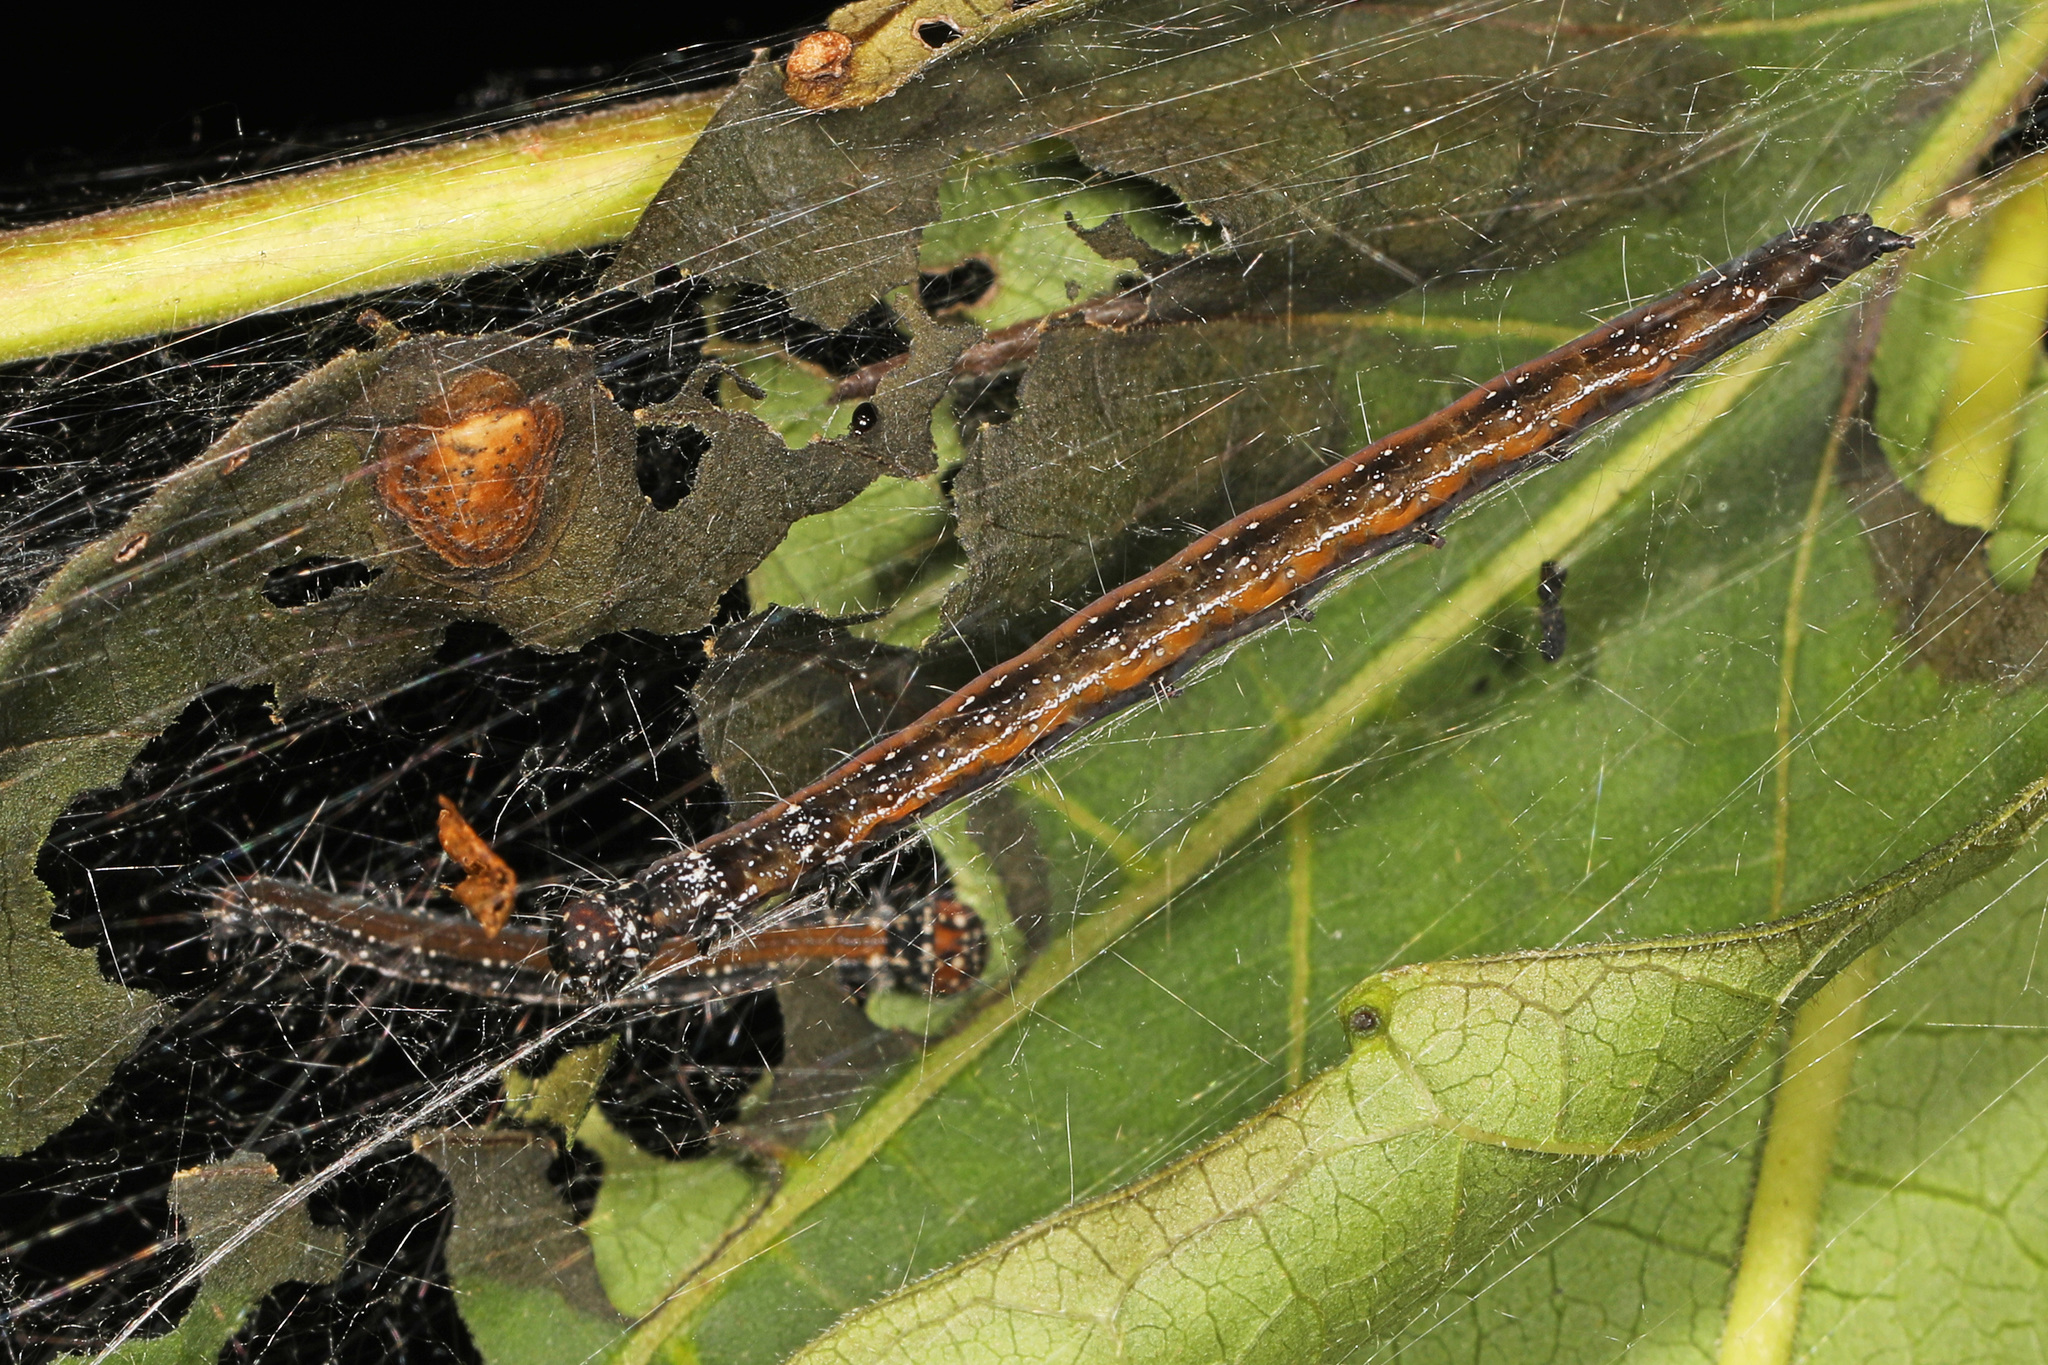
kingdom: Animalia
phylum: Arthropoda
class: Insecta
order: Lepidoptera
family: Attevidae
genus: Atteva
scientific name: Atteva punctella
